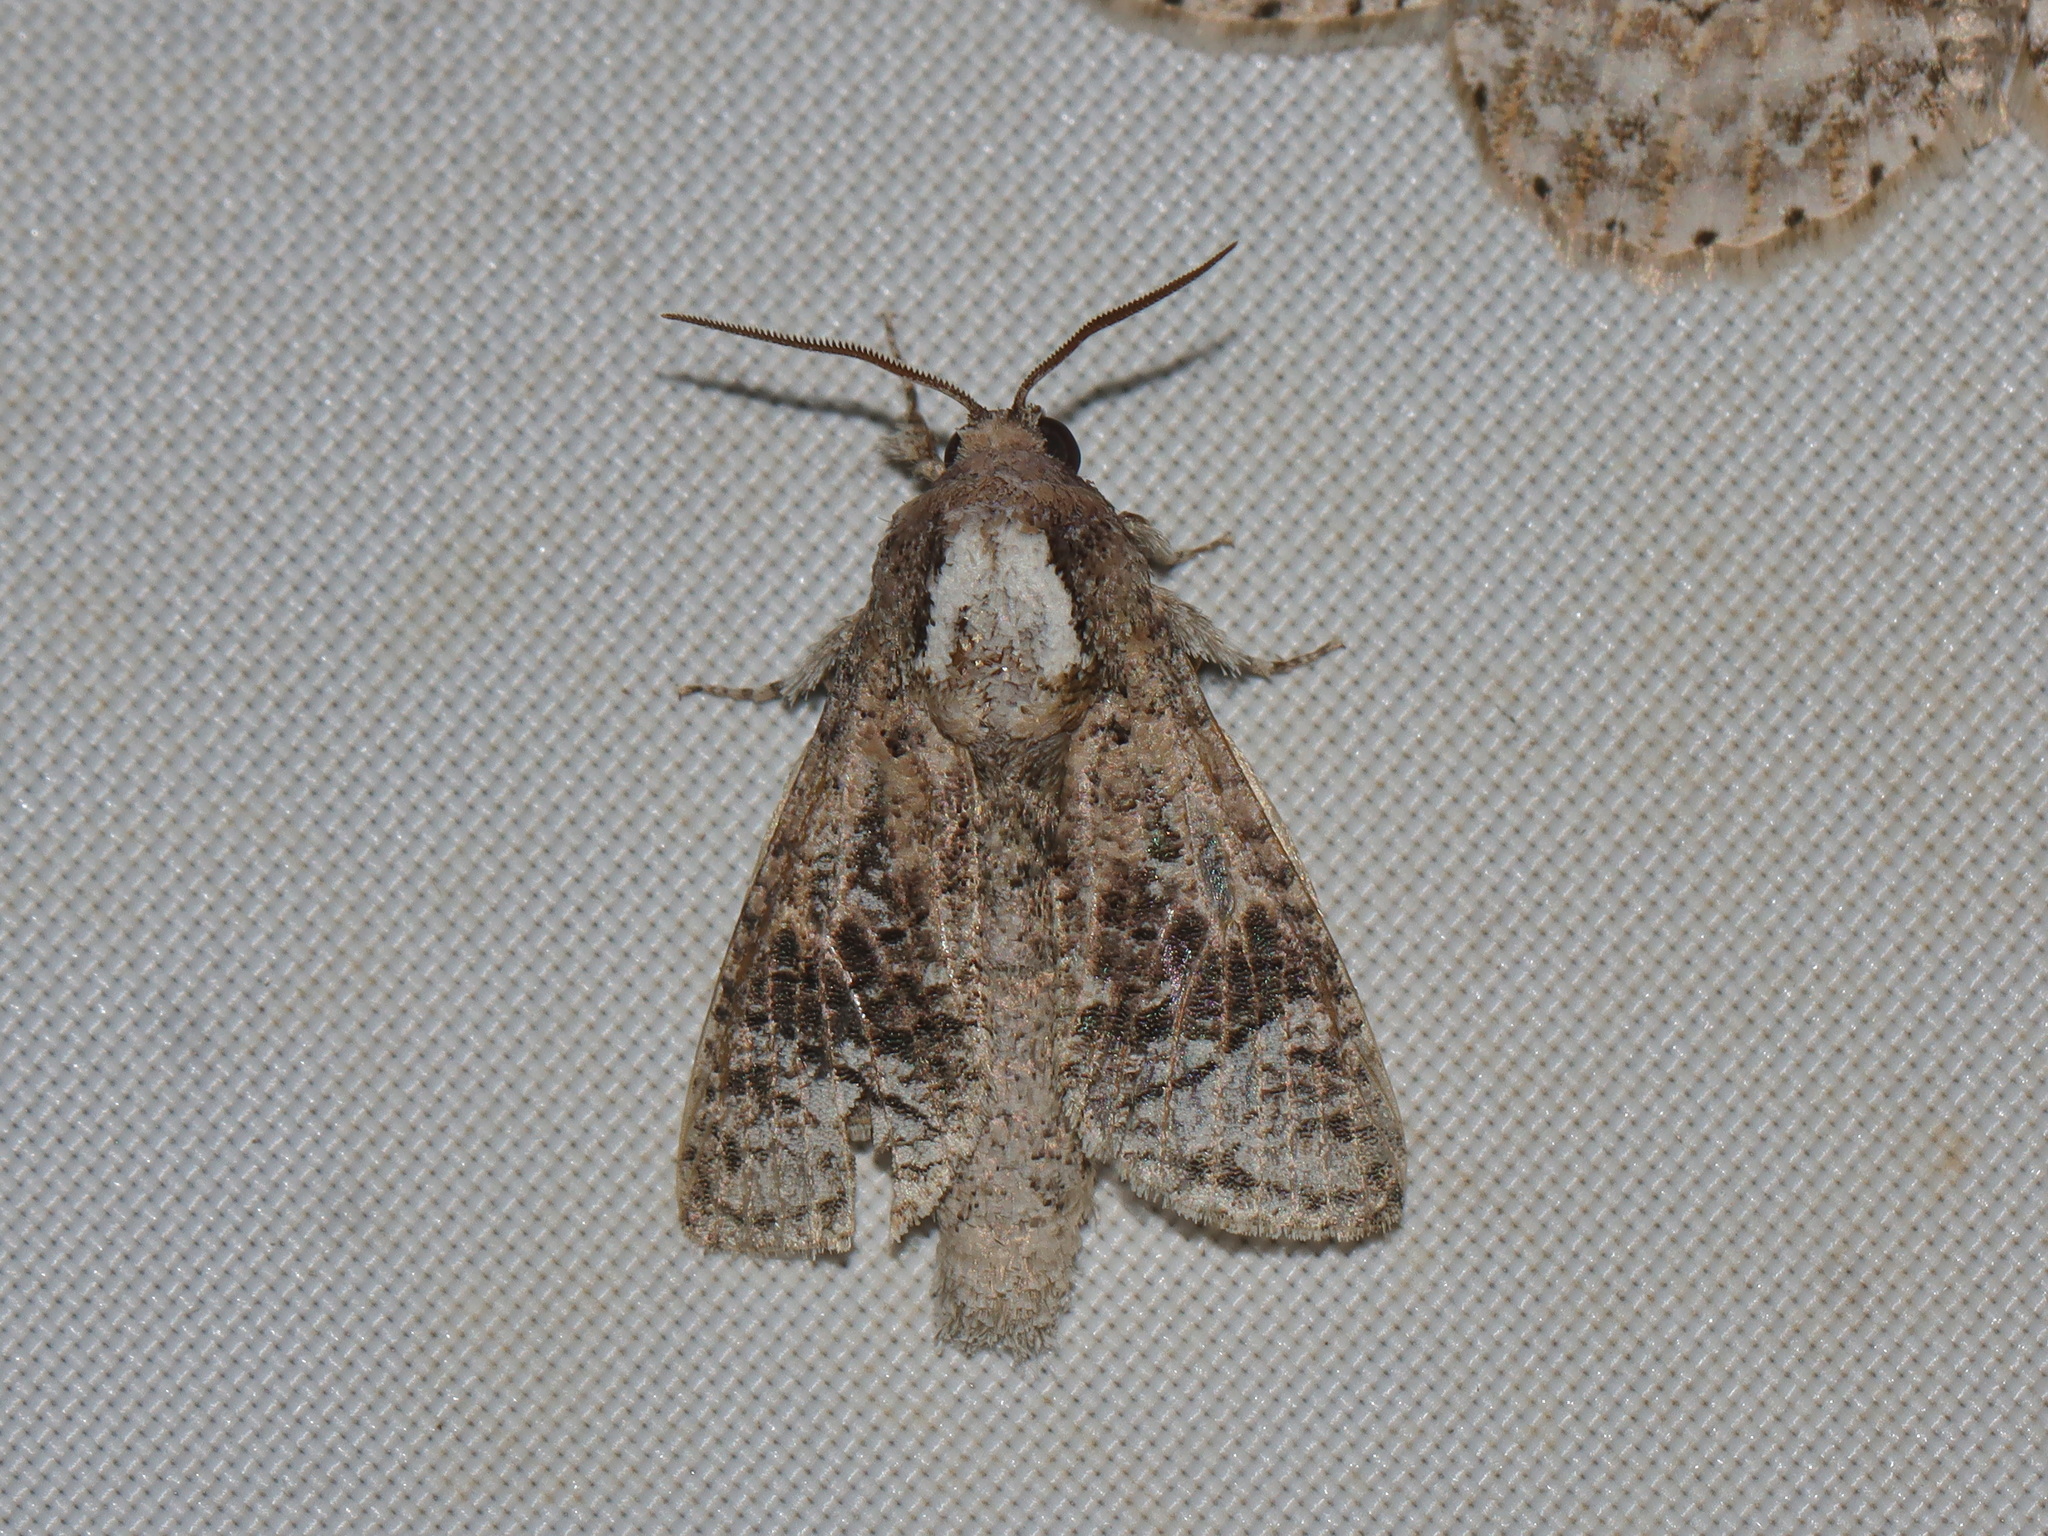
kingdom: Animalia
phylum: Arthropoda
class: Insecta
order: Lepidoptera
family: Cossidae
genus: Roepkiella
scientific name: Roepkiella siamica
